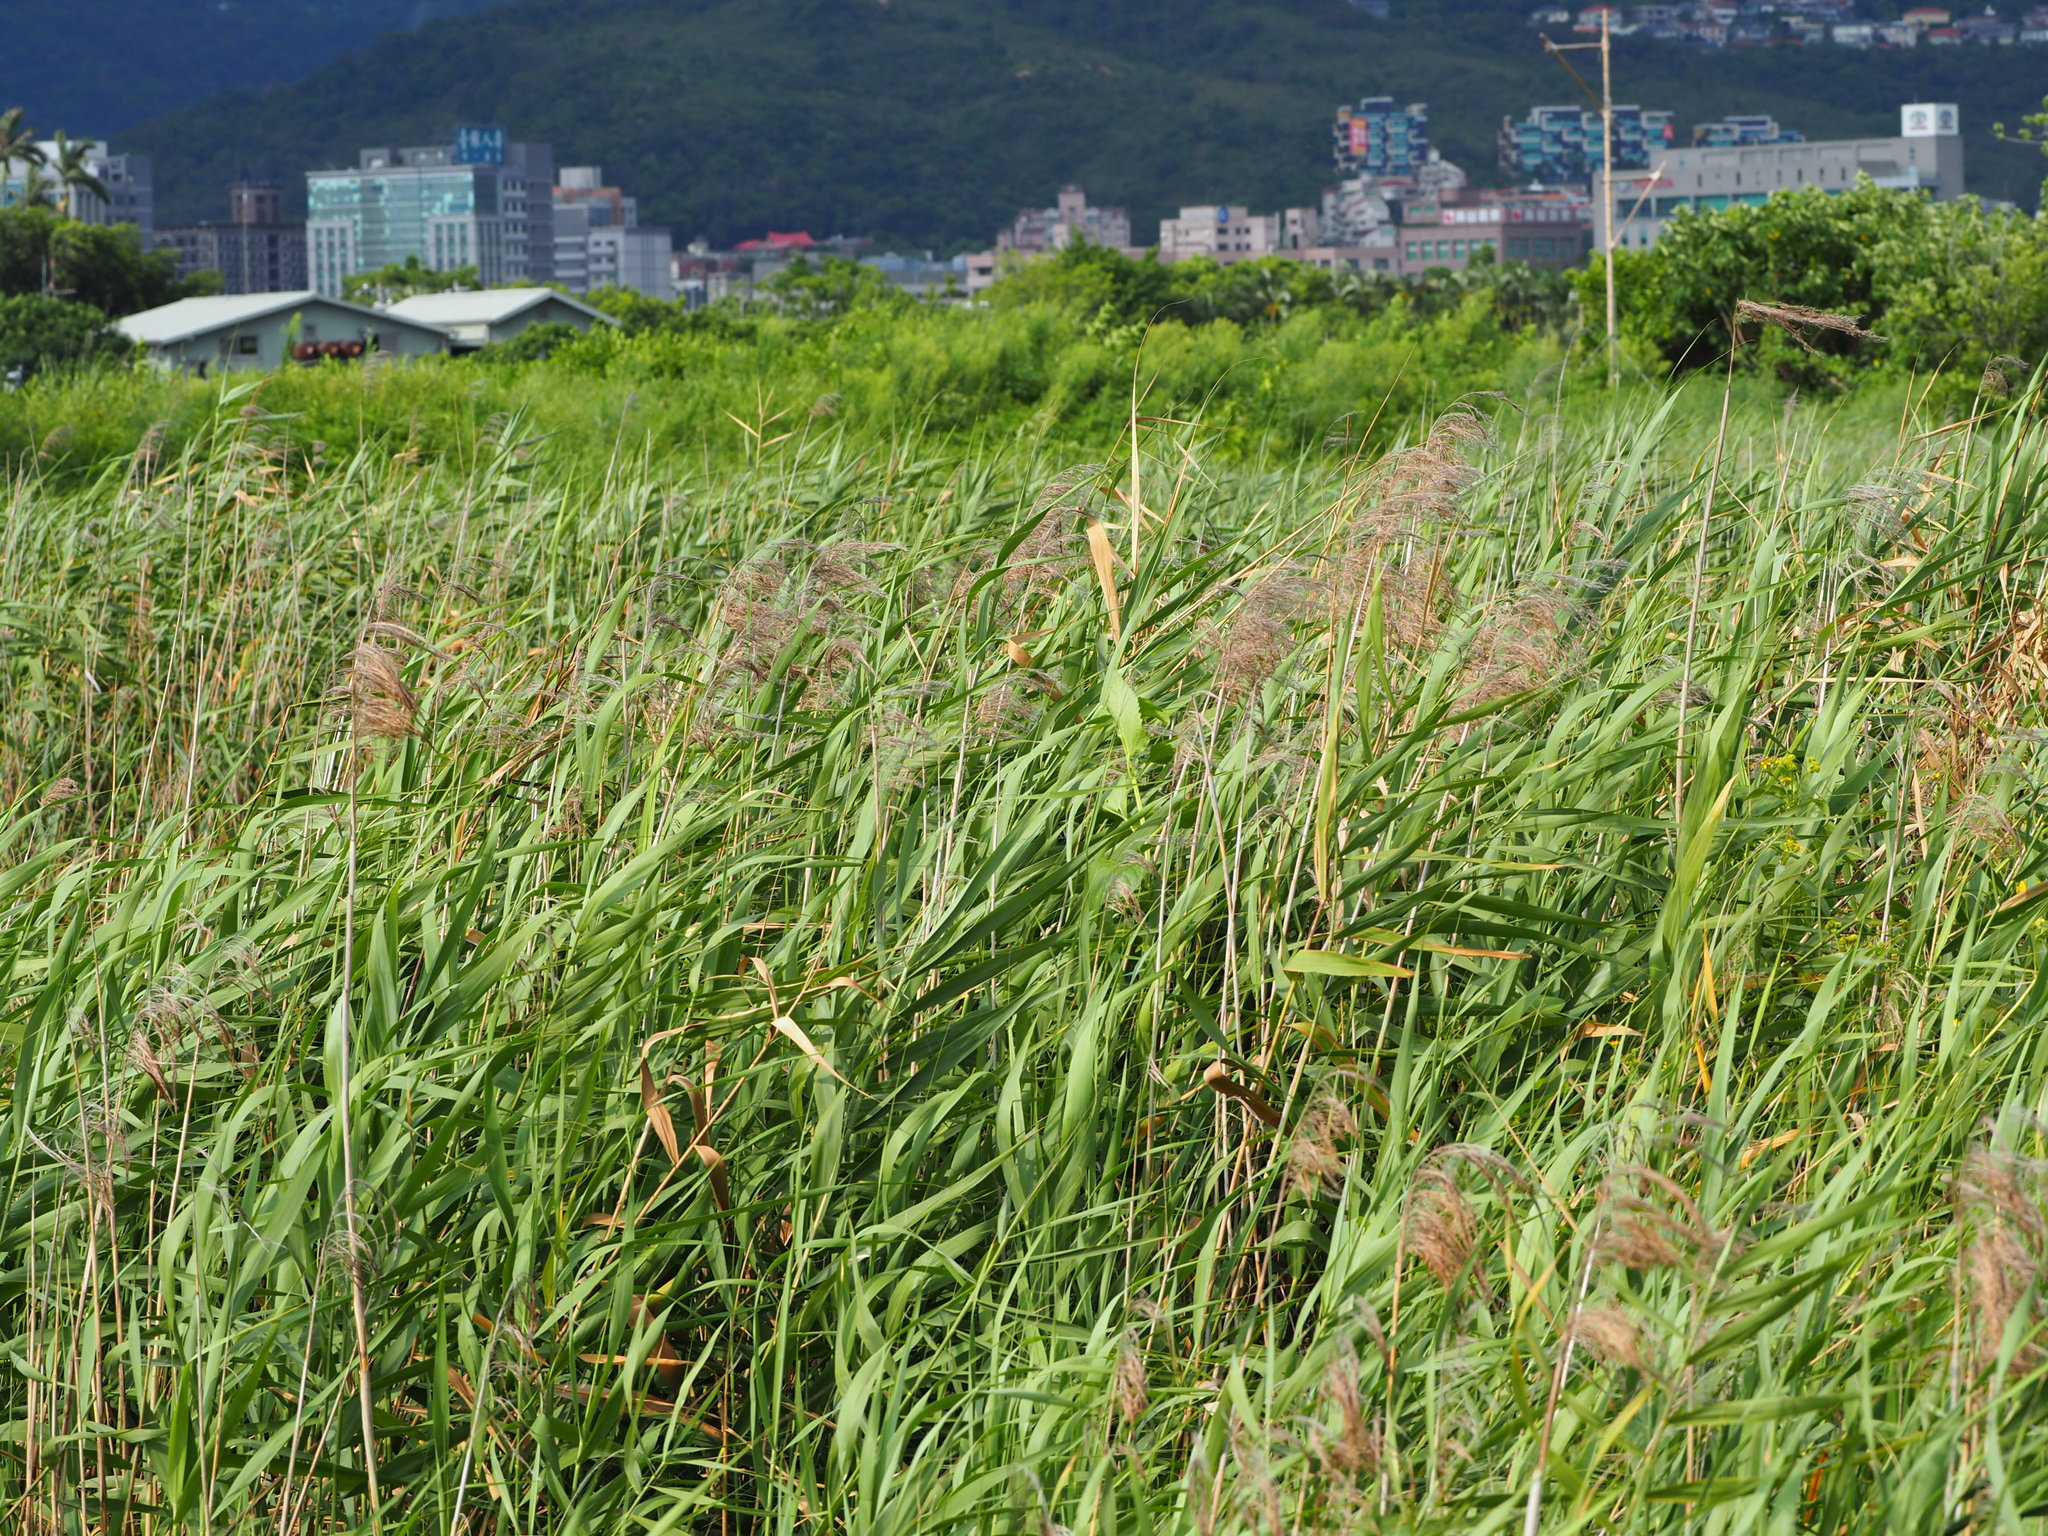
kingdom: Plantae
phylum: Tracheophyta
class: Liliopsida
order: Poales
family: Poaceae
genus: Phragmites
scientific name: Phragmites australis
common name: Common reed
